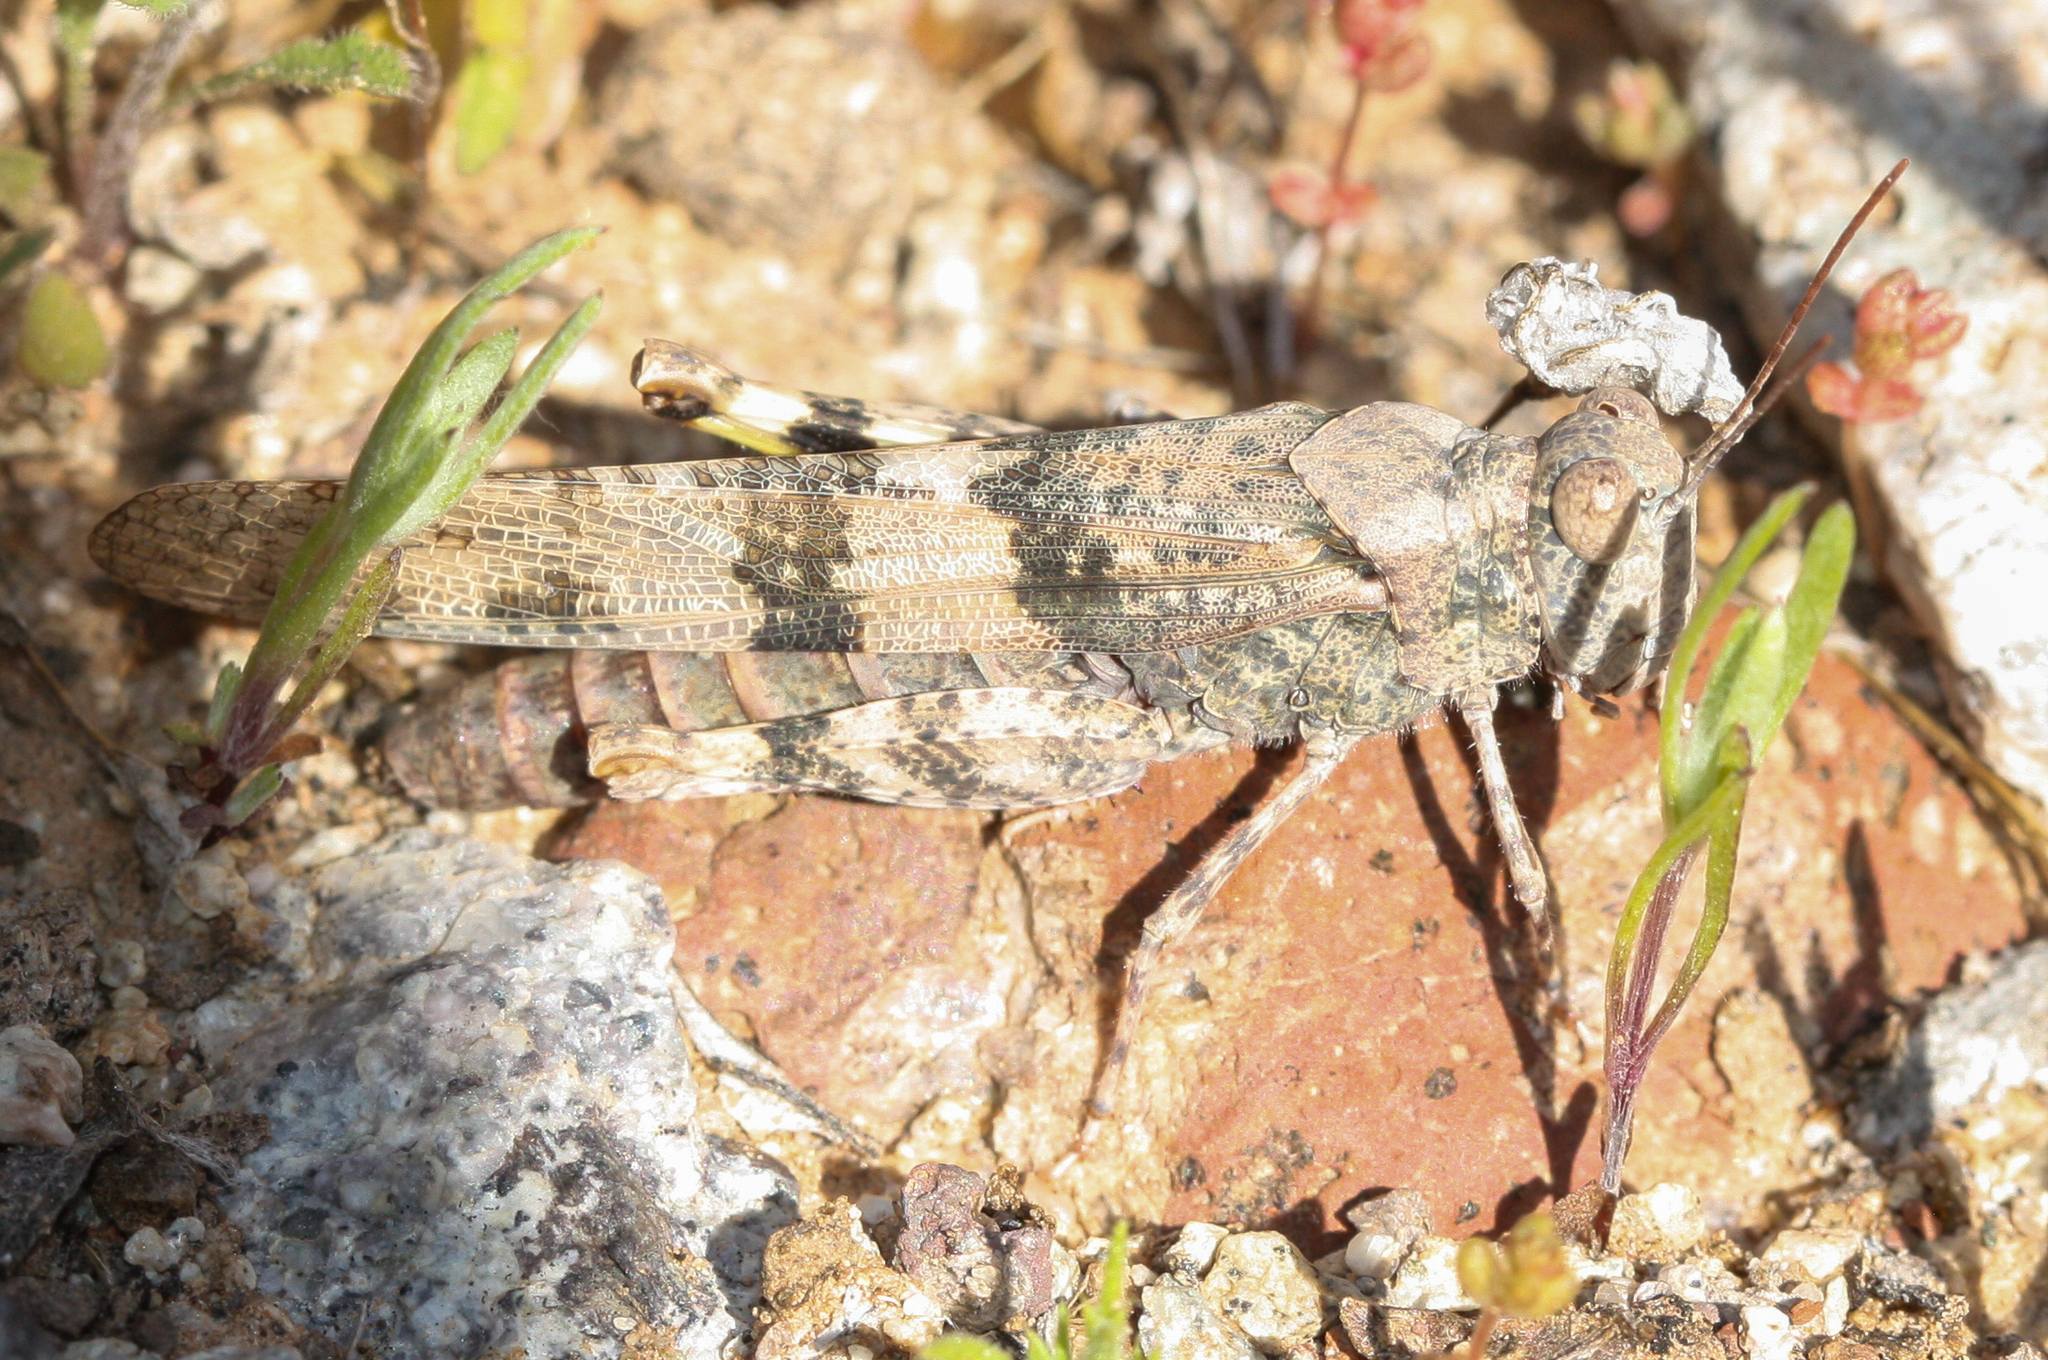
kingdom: Animalia
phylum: Arthropoda
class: Insecta
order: Orthoptera
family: Acrididae
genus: Trimerotropis
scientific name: Trimerotropis pallidipennis
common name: Pallid-winged grasshopper
